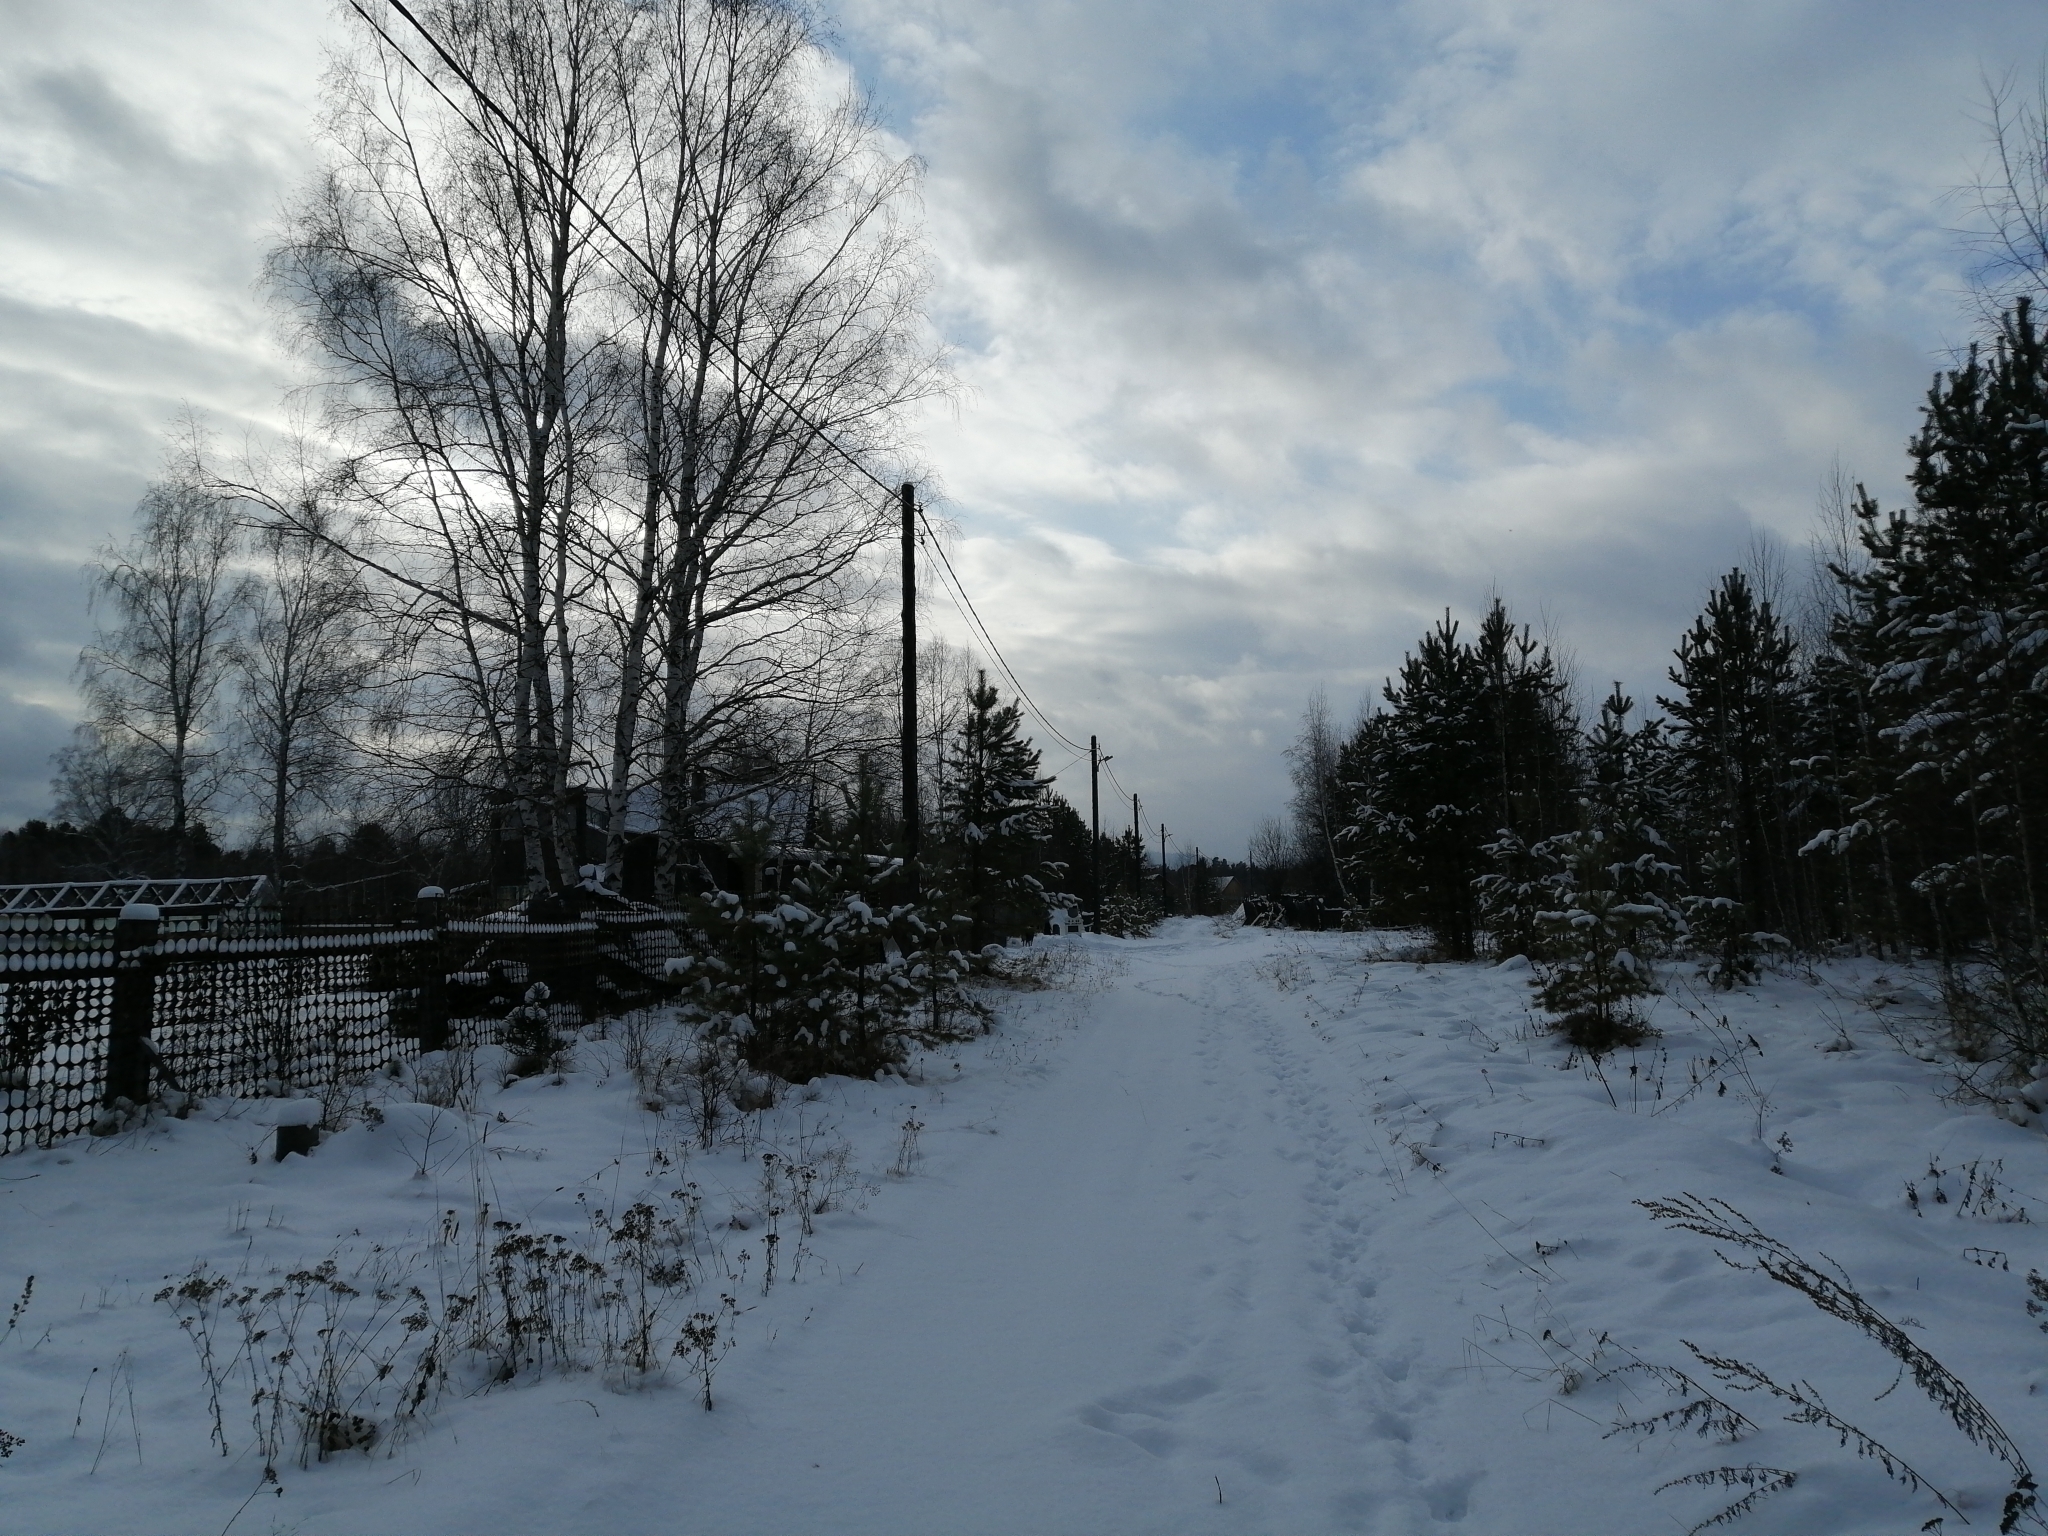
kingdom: Plantae
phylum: Tracheophyta
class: Pinopsida
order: Pinales
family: Pinaceae
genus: Pinus
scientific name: Pinus sylvestris
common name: Scots pine
